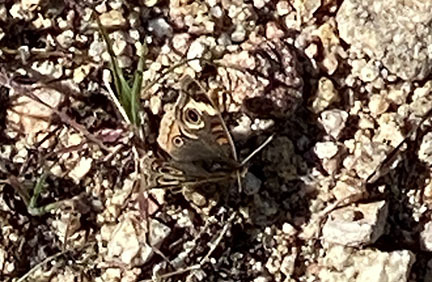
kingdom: Animalia
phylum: Arthropoda
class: Insecta
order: Lepidoptera
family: Nymphalidae
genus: Junonia
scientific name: Junonia grisea
